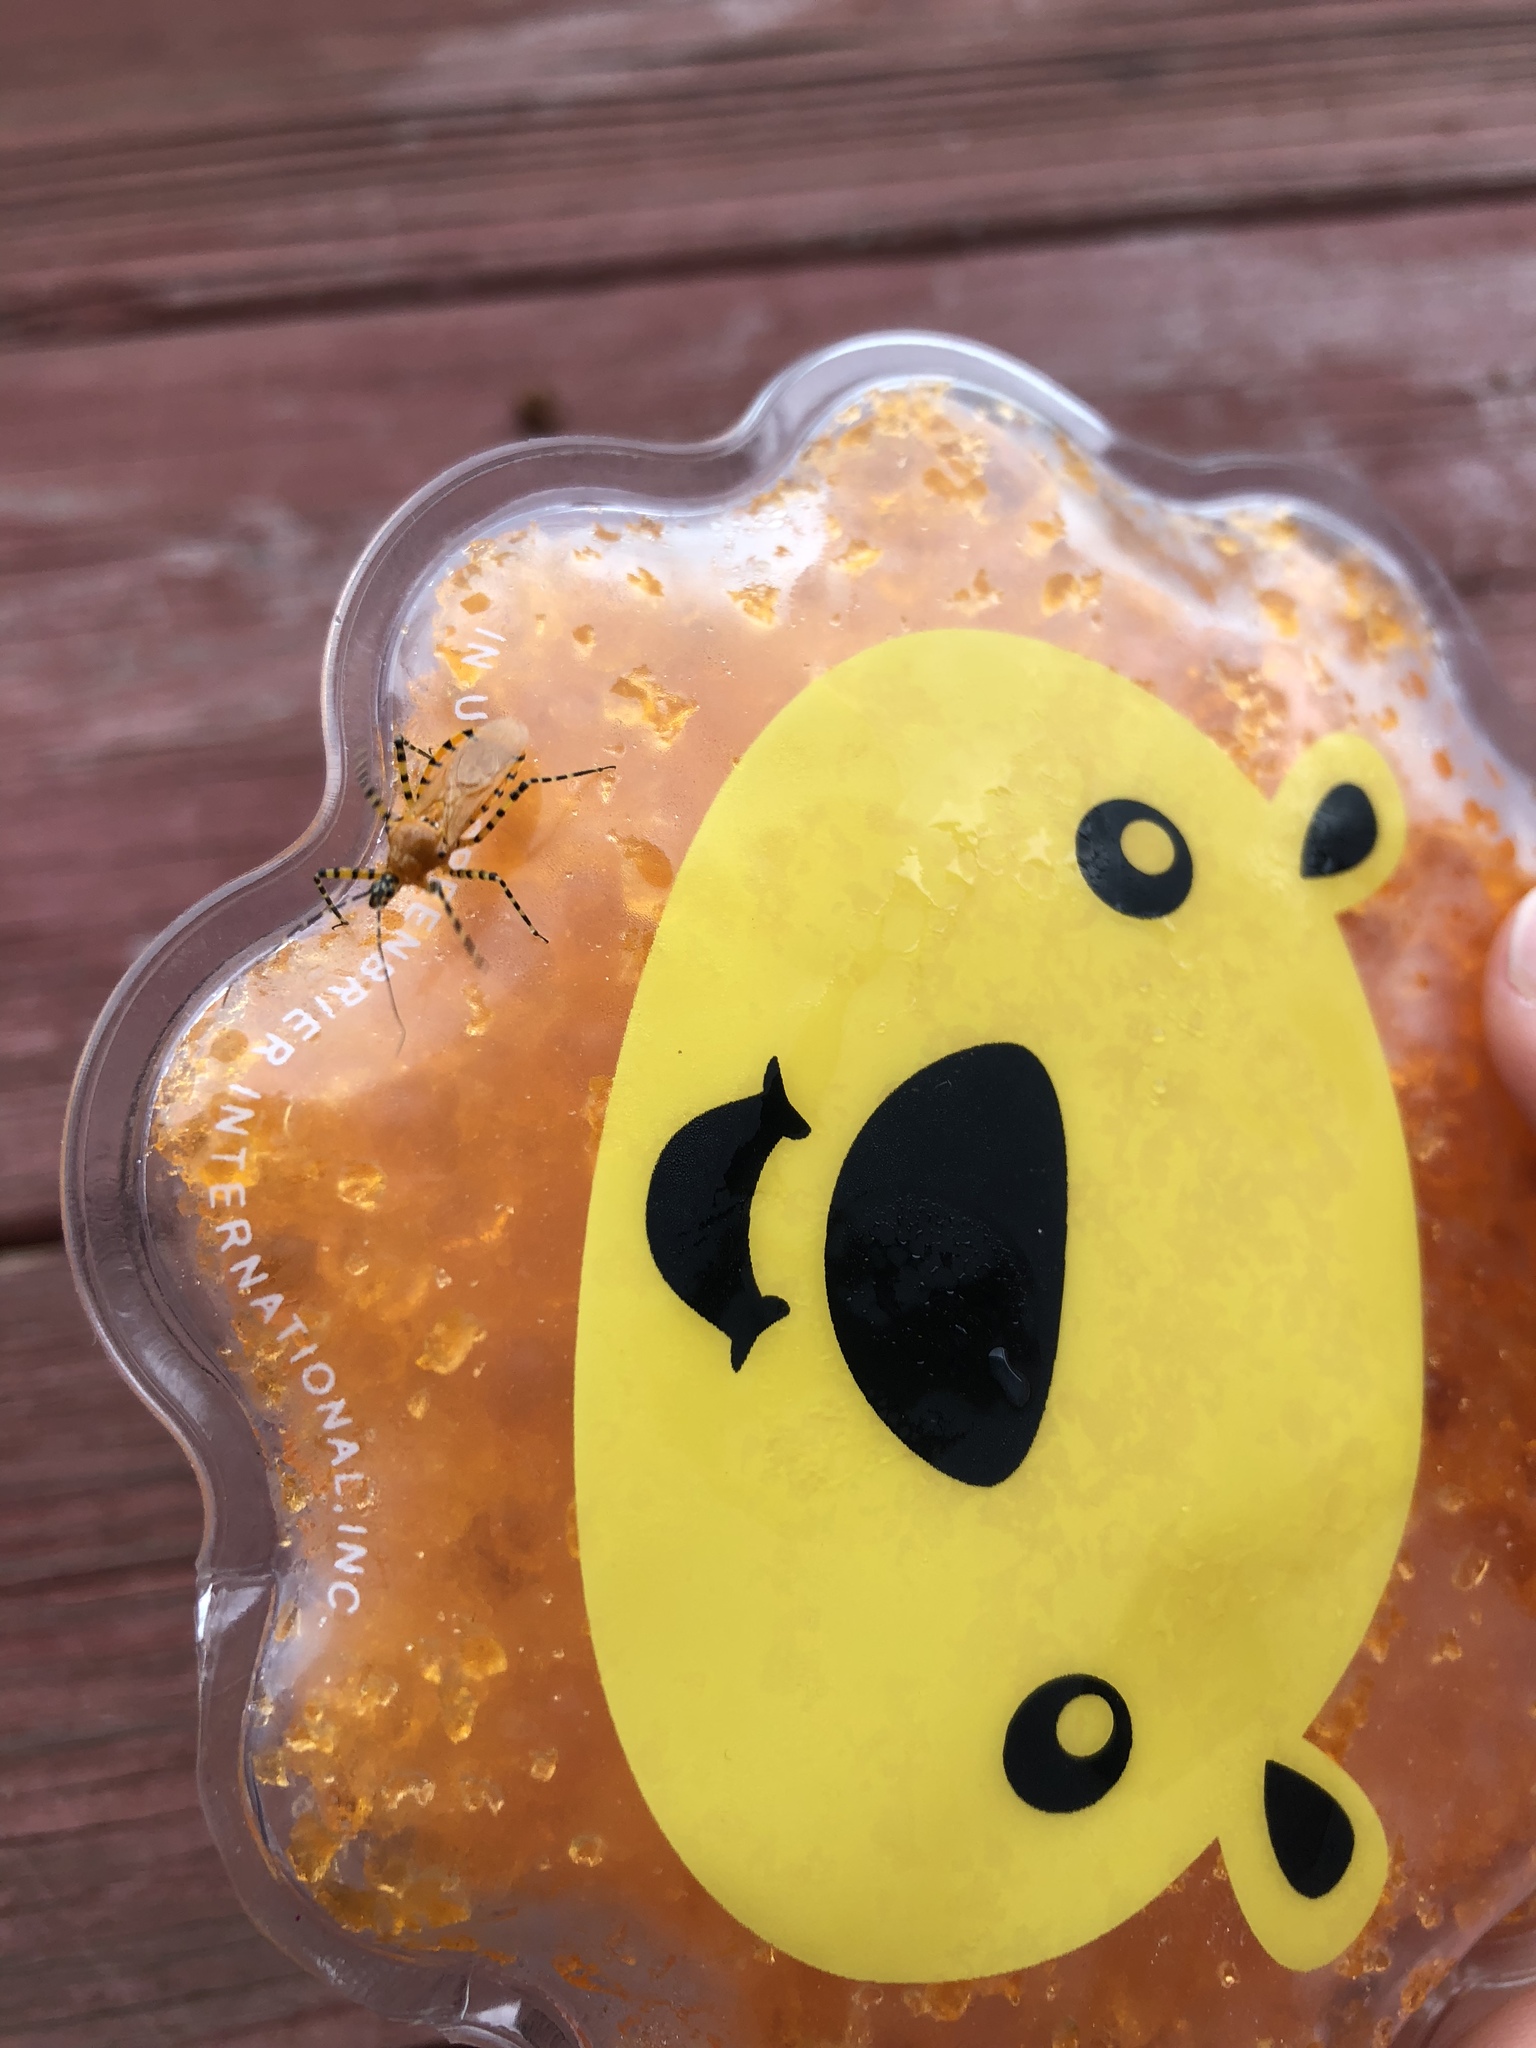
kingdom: Animalia
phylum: Arthropoda
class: Insecta
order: Hemiptera
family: Reduviidae
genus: Pselliopus
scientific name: Pselliopus barberi
